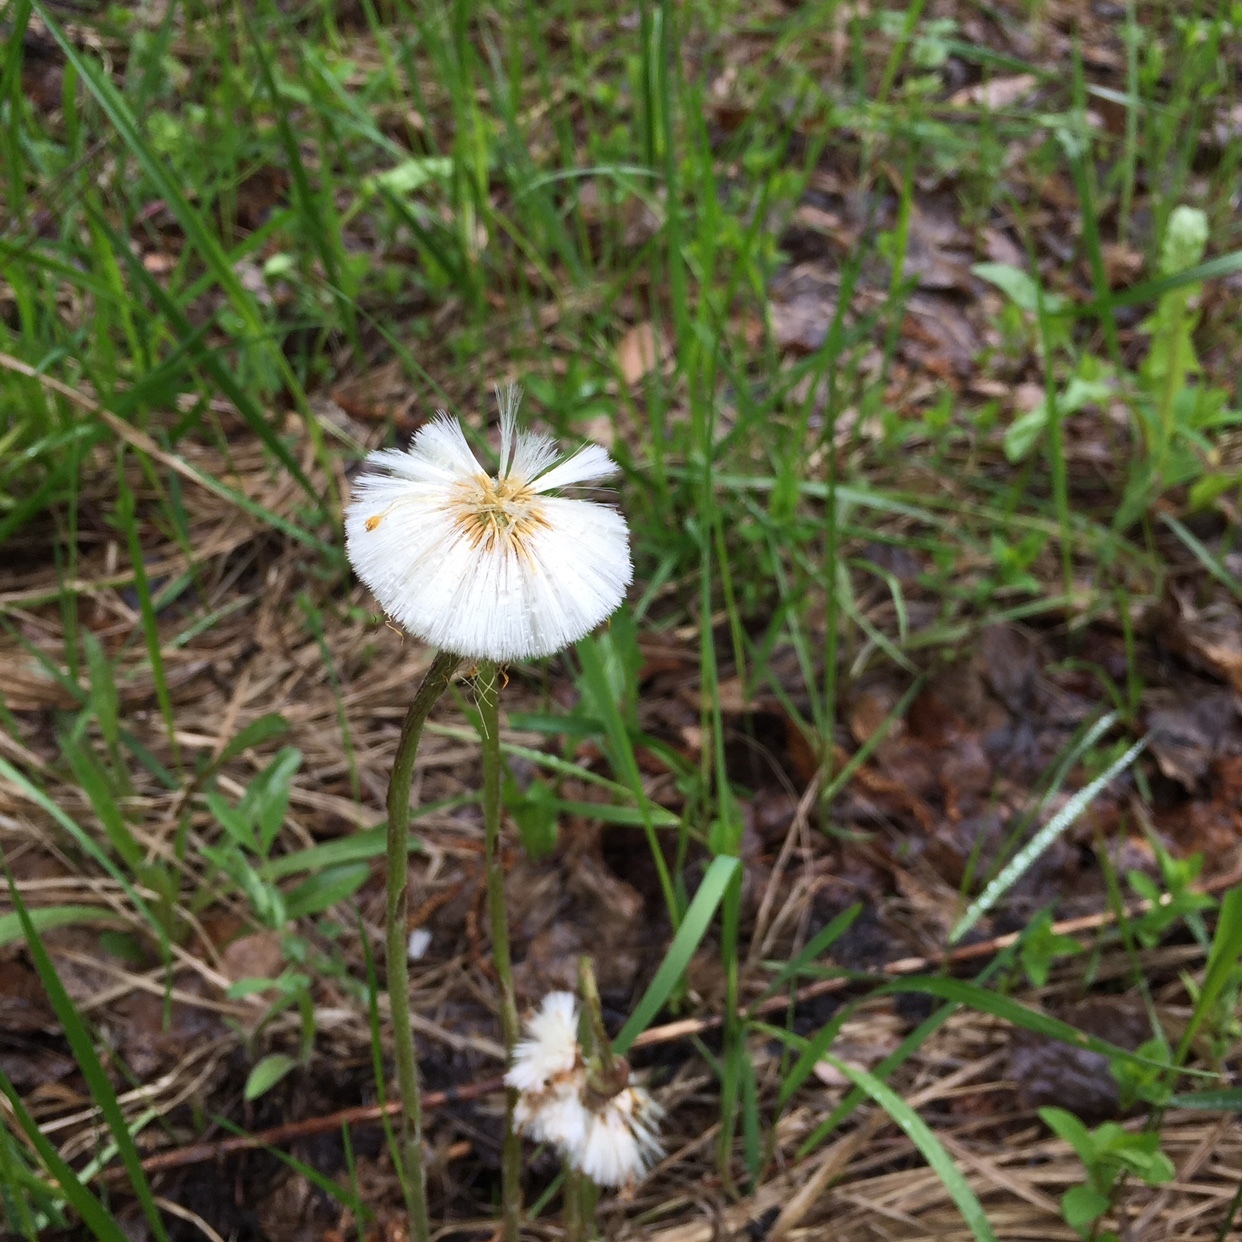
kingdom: Plantae
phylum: Tracheophyta
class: Magnoliopsida
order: Asterales
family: Asteraceae
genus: Tussilago
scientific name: Tussilago farfara
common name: Coltsfoot
